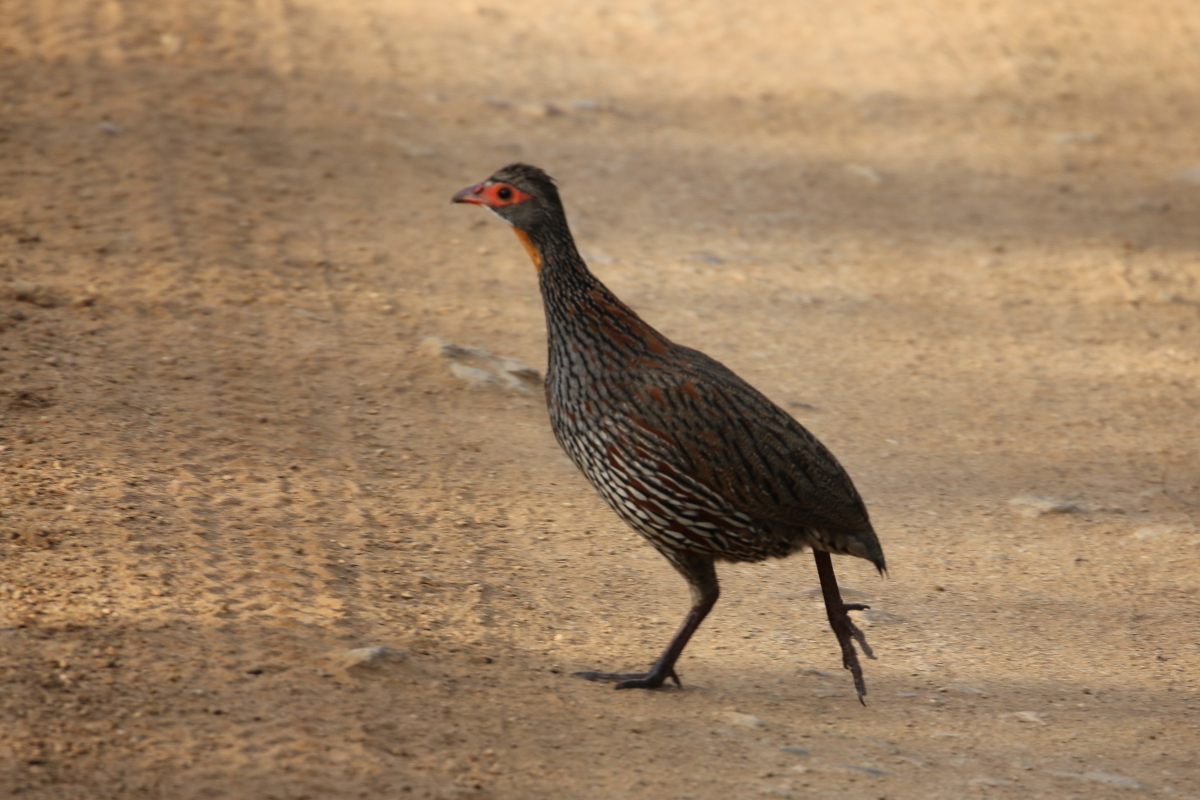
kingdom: Animalia
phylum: Chordata
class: Aves
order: Galliformes
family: Phasianidae
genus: Pternistis
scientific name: Pternistis rufopictus
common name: Grey-breasted spurfowl
